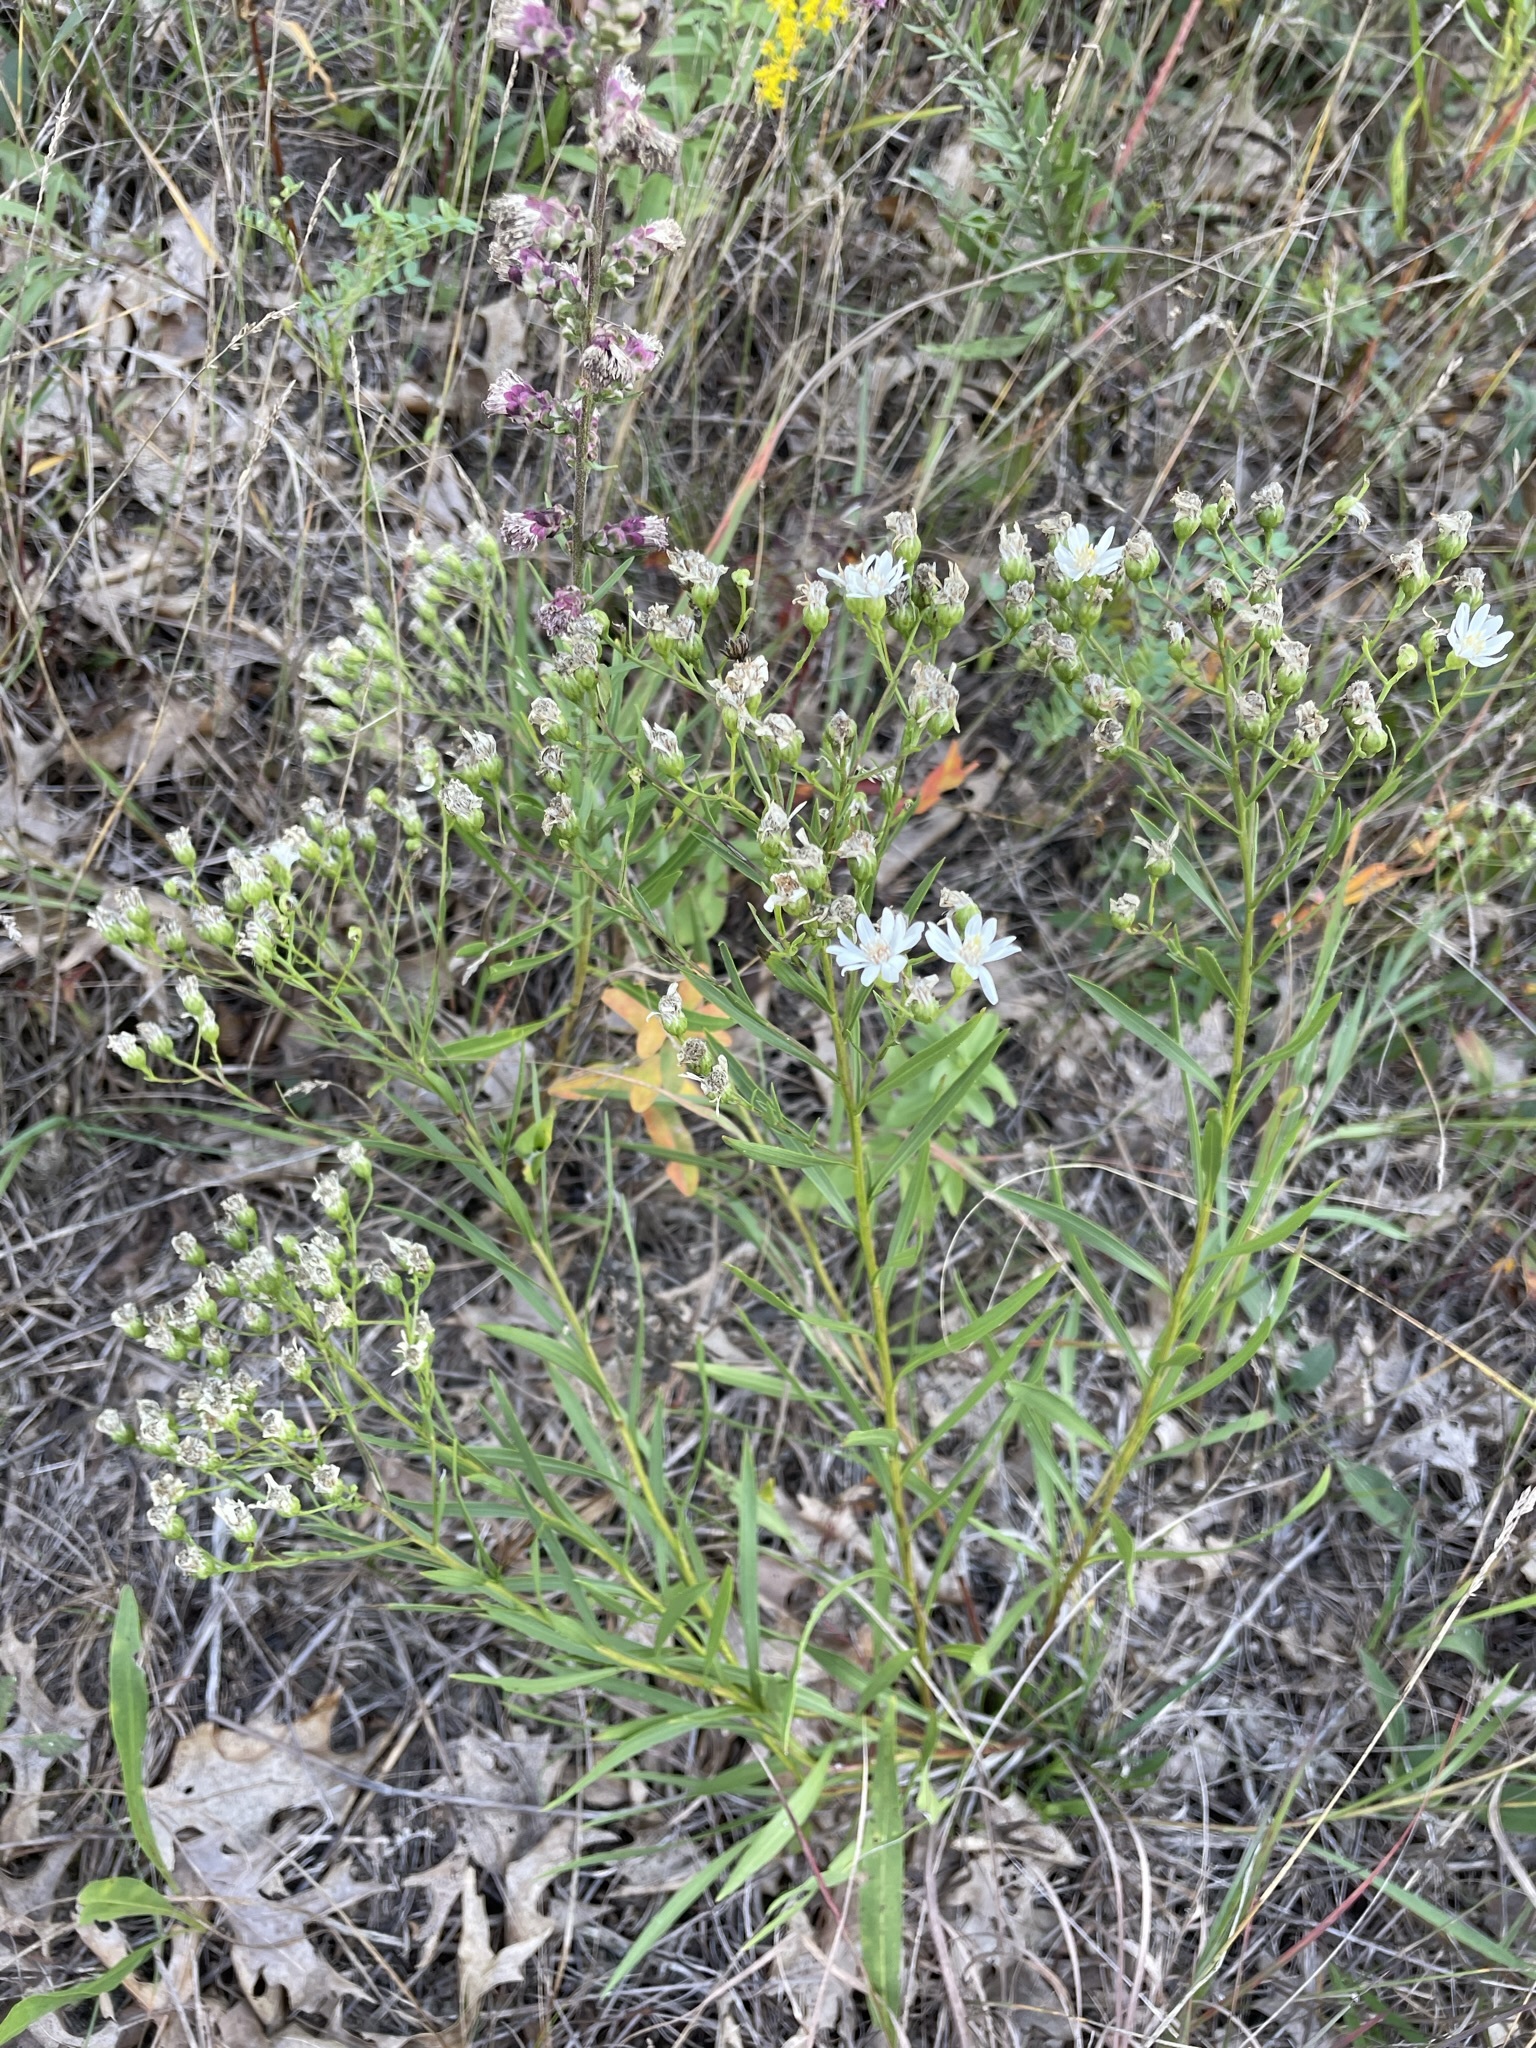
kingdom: Plantae
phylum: Tracheophyta
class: Magnoliopsida
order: Asterales
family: Asteraceae
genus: Solidago
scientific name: Solidago ptarmicoides
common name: White flat-top goldenrod
